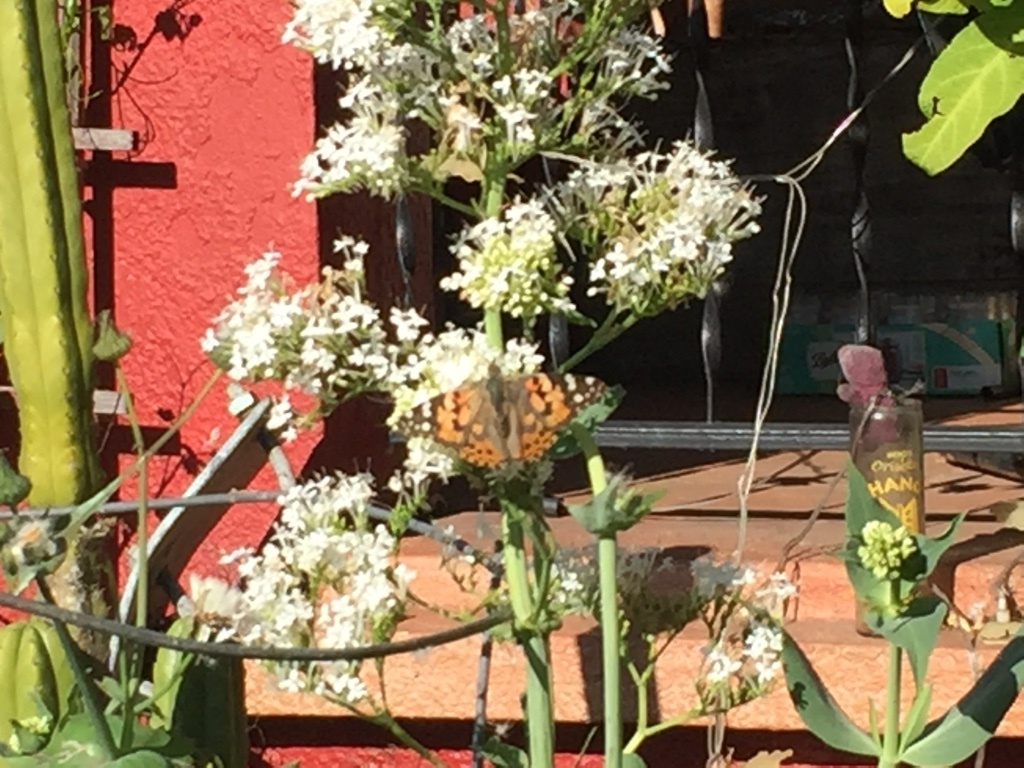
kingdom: Animalia
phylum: Arthropoda
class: Insecta
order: Lepidoptera
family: Nymphalidae
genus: Vanessa
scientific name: Vanessa cardui
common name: Painted lady
